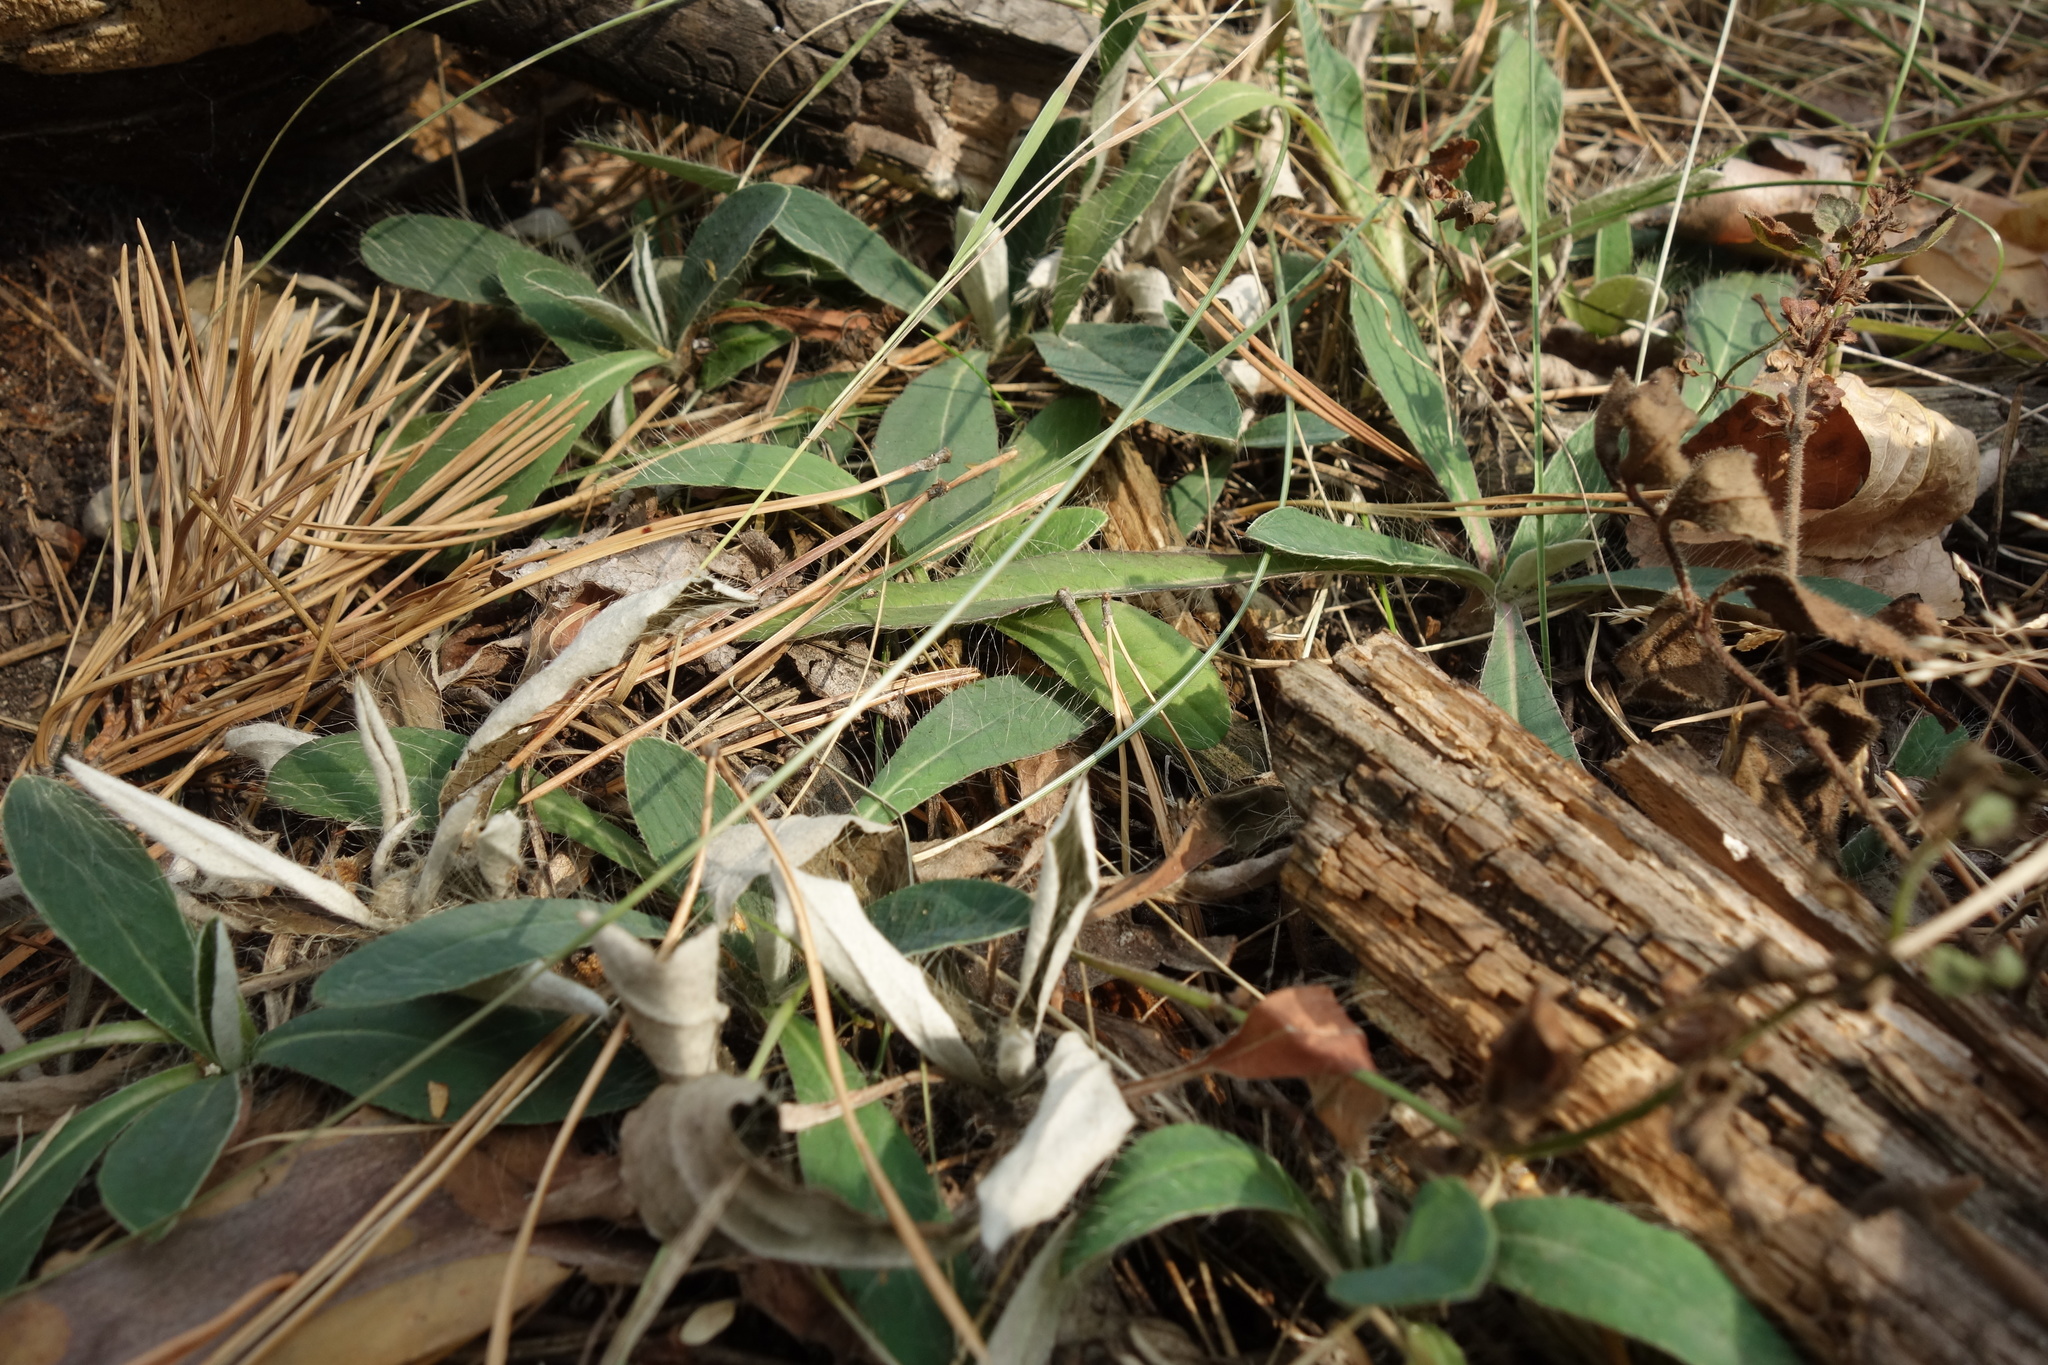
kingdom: Plantae
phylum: Tracheophyta
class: Magnoliopsida
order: Asterales
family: Asteraceae
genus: Pilosella
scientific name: Pilosella officinarum
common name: Mouse-ear hawkweed
